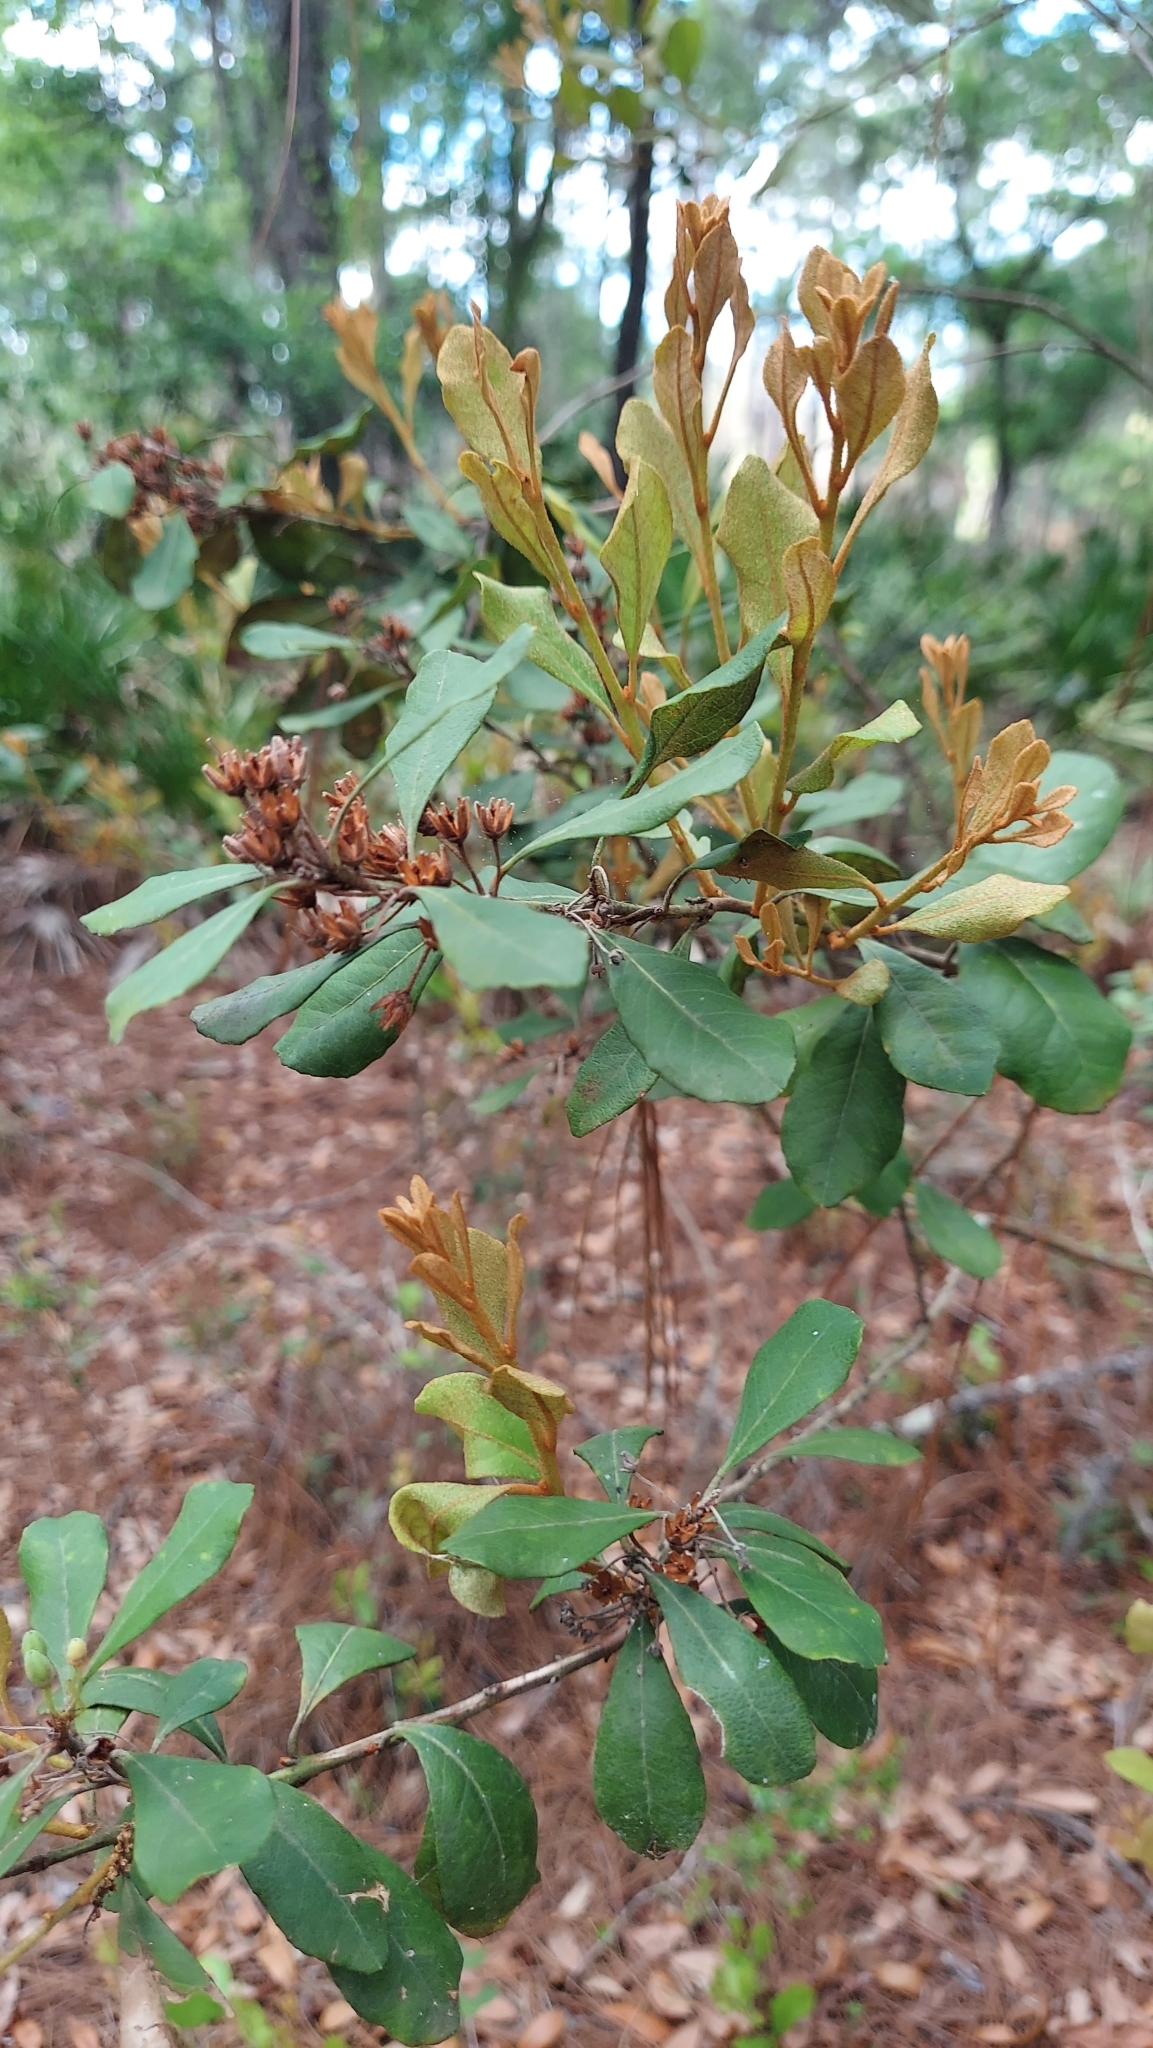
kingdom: Plantae
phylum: Tracheophyta
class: Magnoliopsida
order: Ericales
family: Ericaceae
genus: Lyonia
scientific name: Lyonia fruticosa
